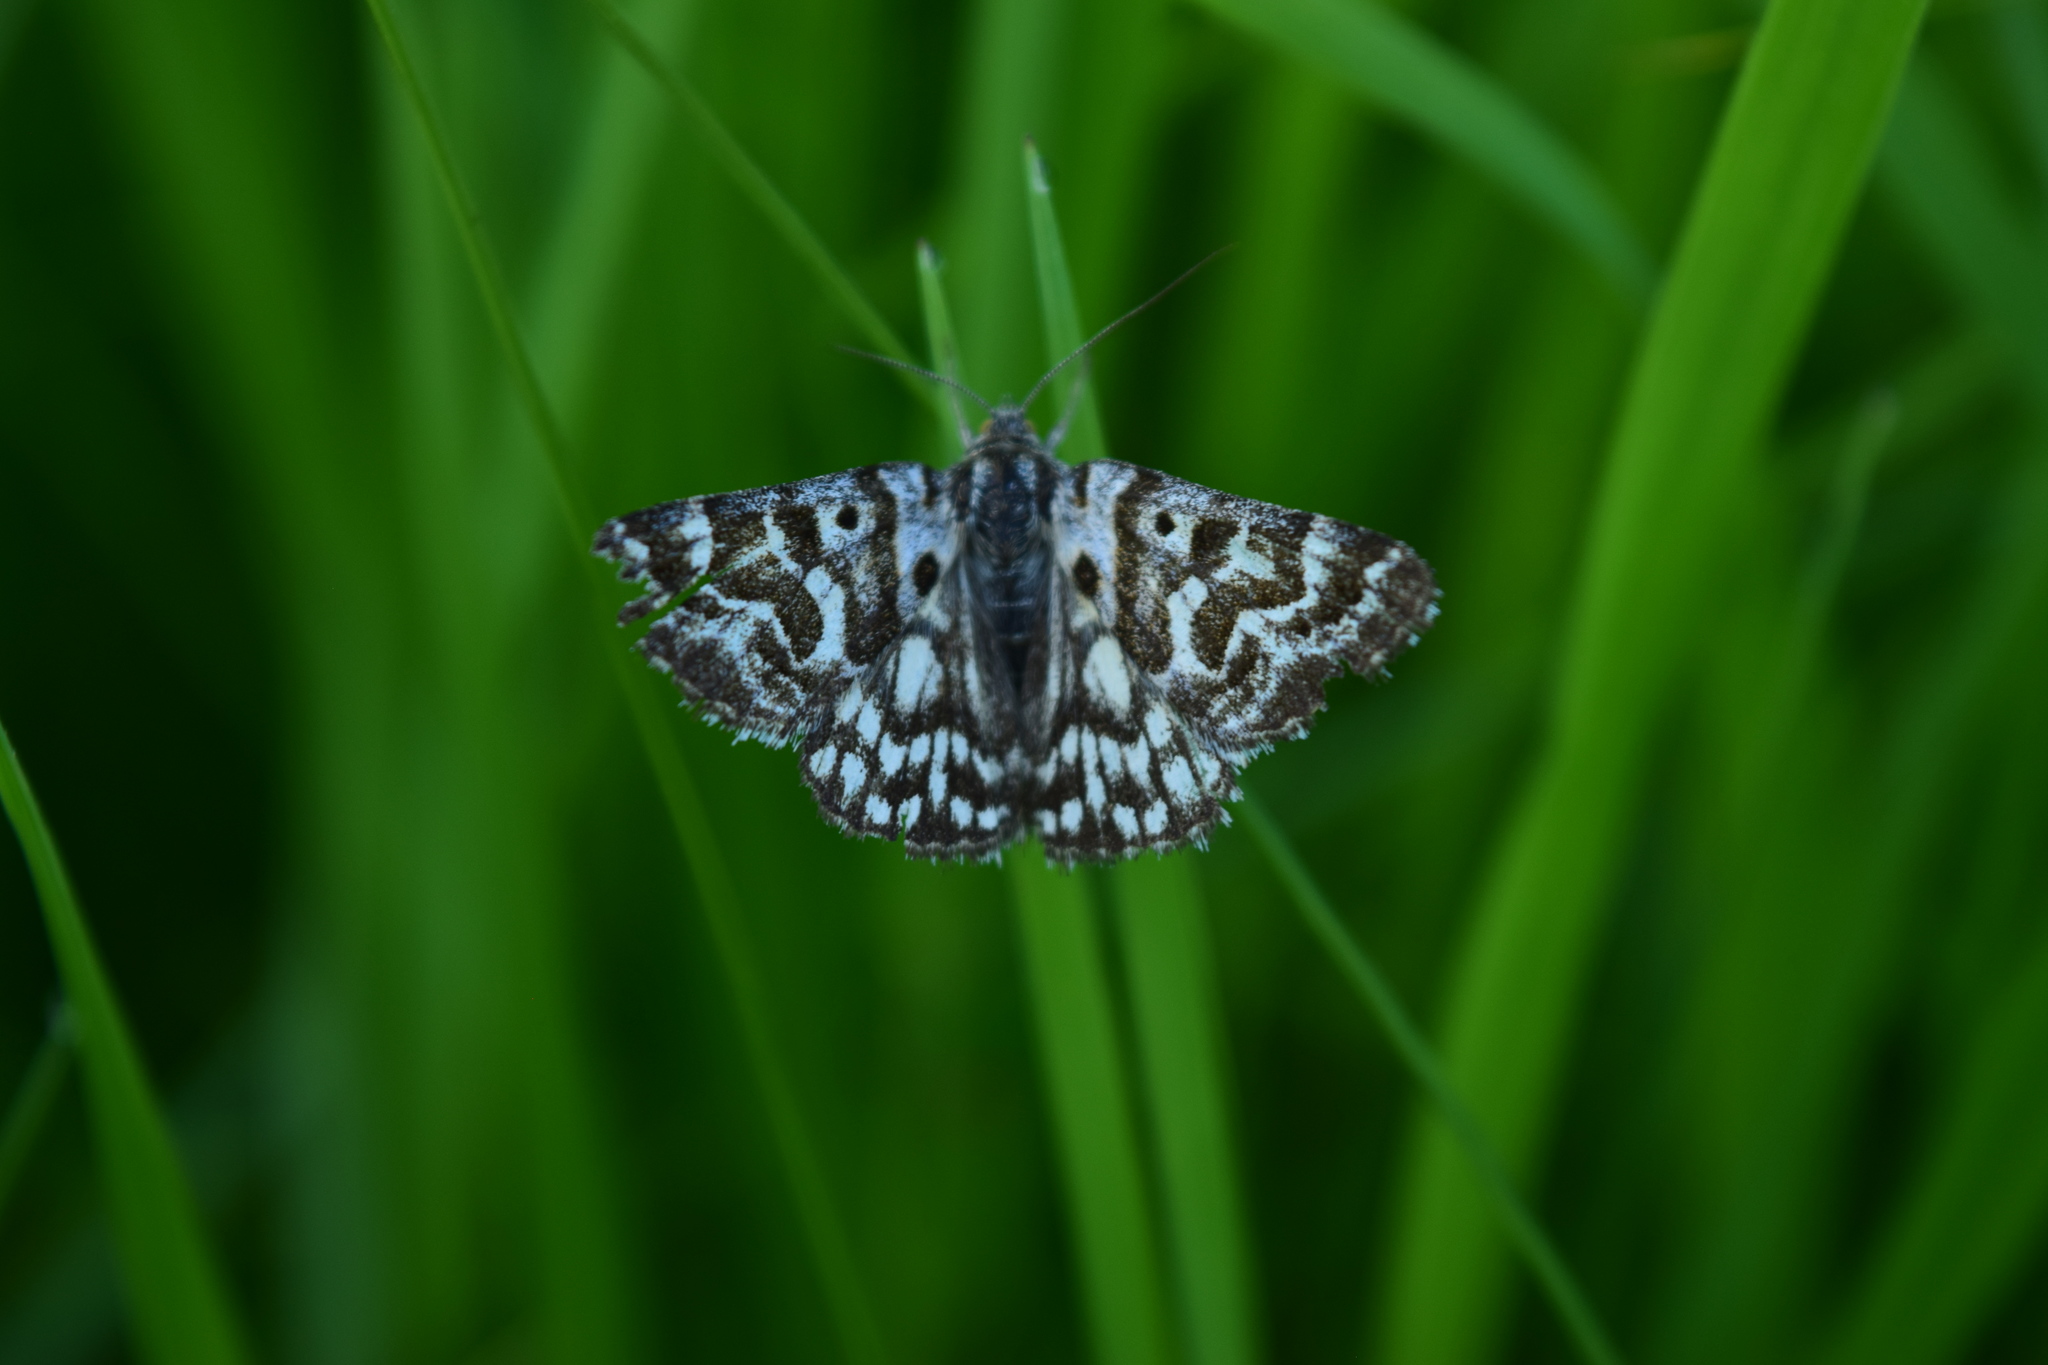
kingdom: Animalia
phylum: Arthropoda
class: Insecta
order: Lepidoptera
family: Erebidae
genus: Callistege
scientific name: Callistege mi
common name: Mother shipton
